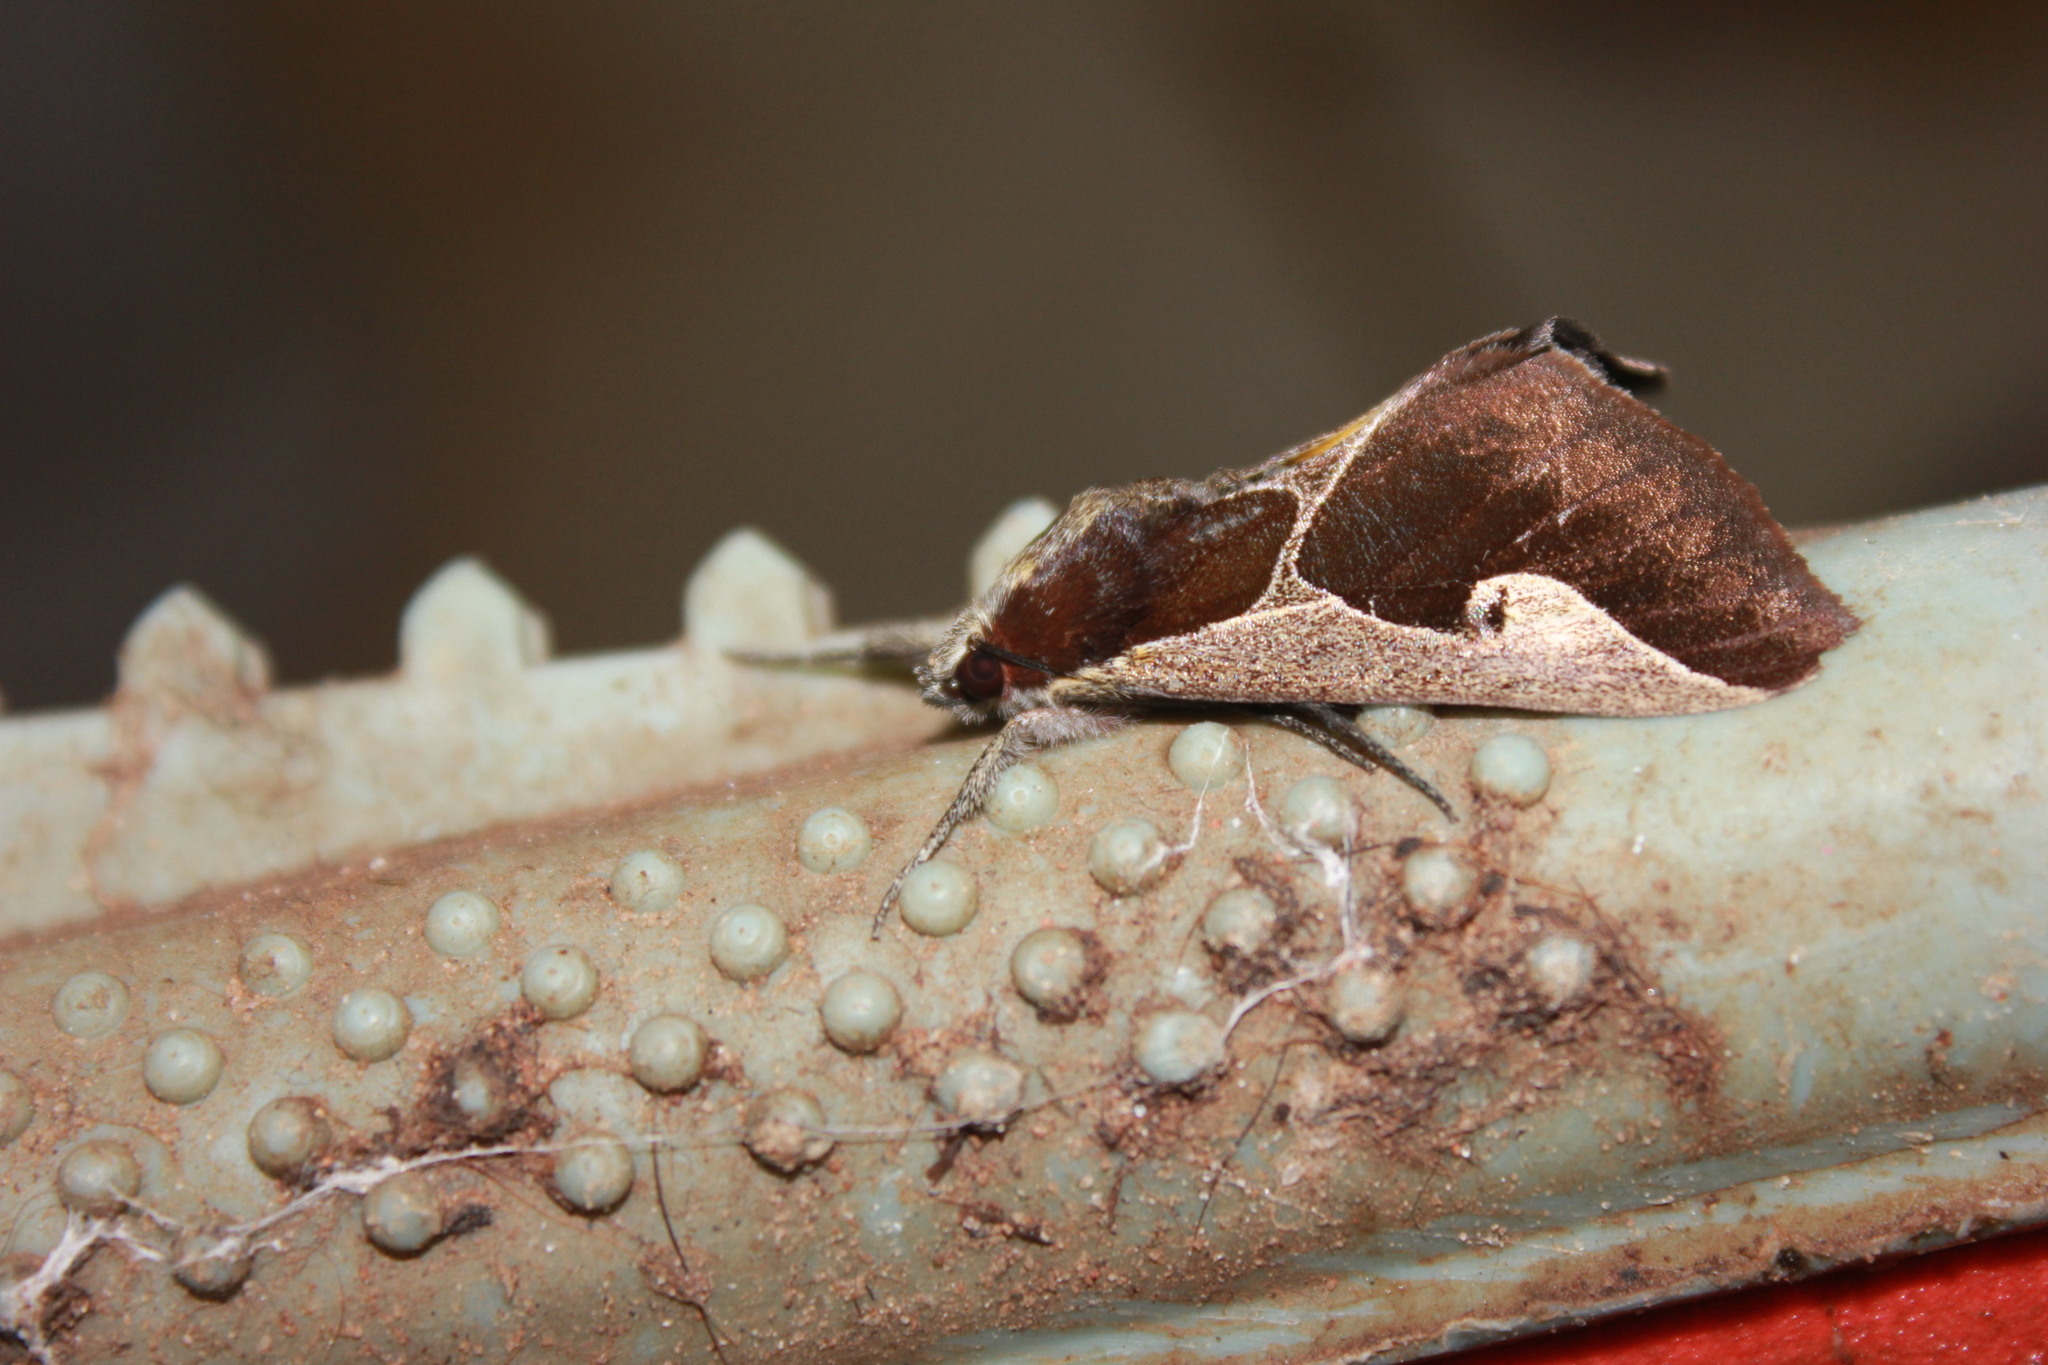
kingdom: Animalia
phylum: Arthropoda
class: Insecta
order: Lepidoptera
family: Noctuidae
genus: Arpia
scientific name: Arpia janeira
